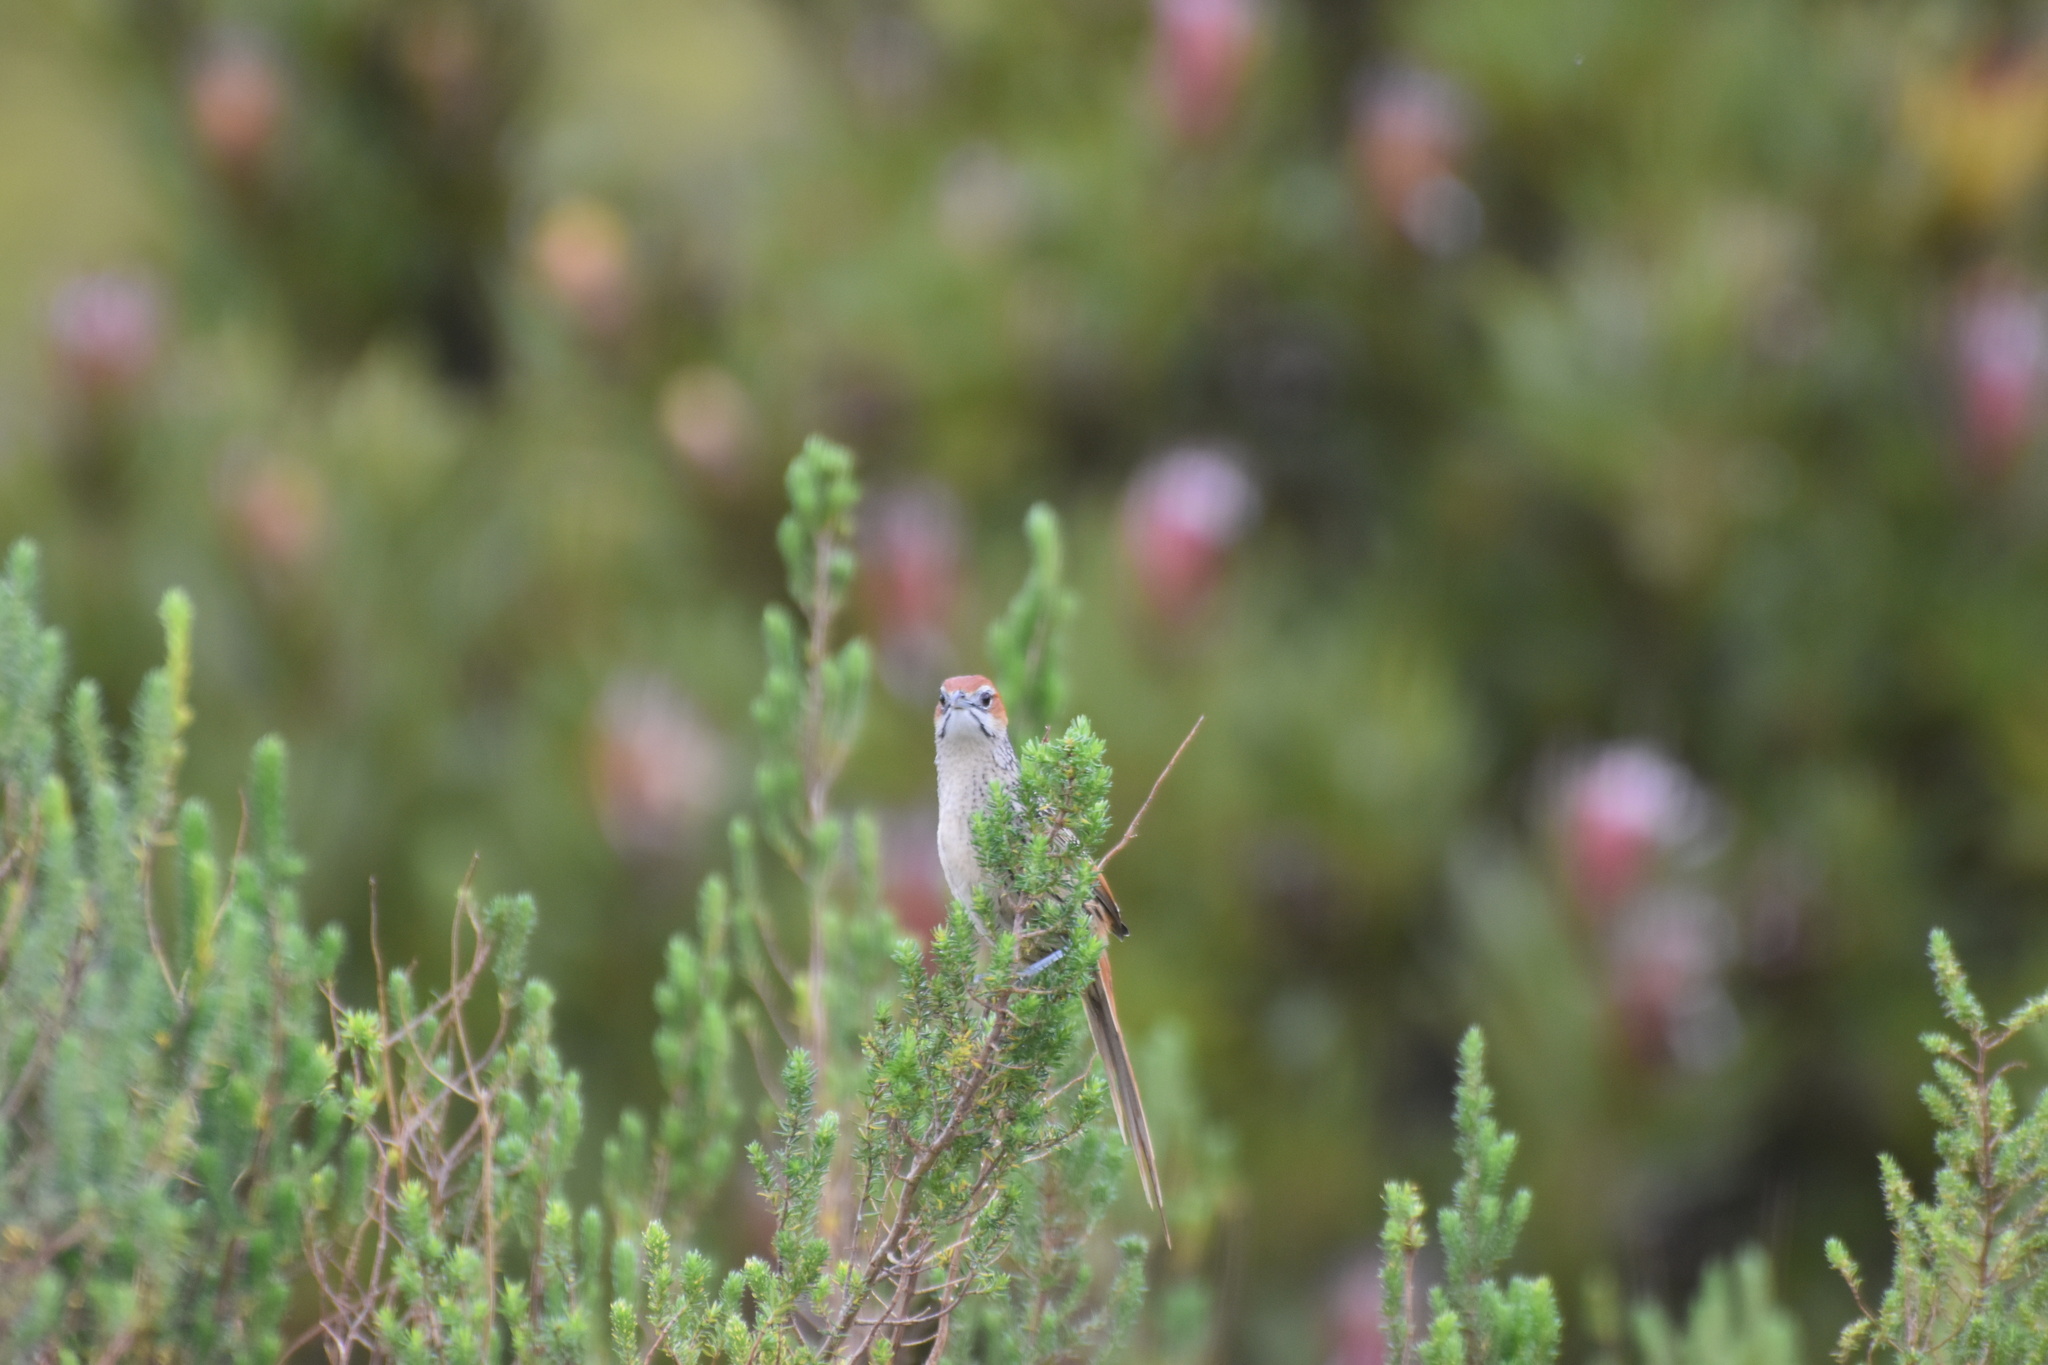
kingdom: Animalia
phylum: Chordata
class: Aves
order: Passeriformes
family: Macrosphenidae
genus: Sphenoeacus
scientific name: Sphenoeacus afer
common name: Cape grassbird
